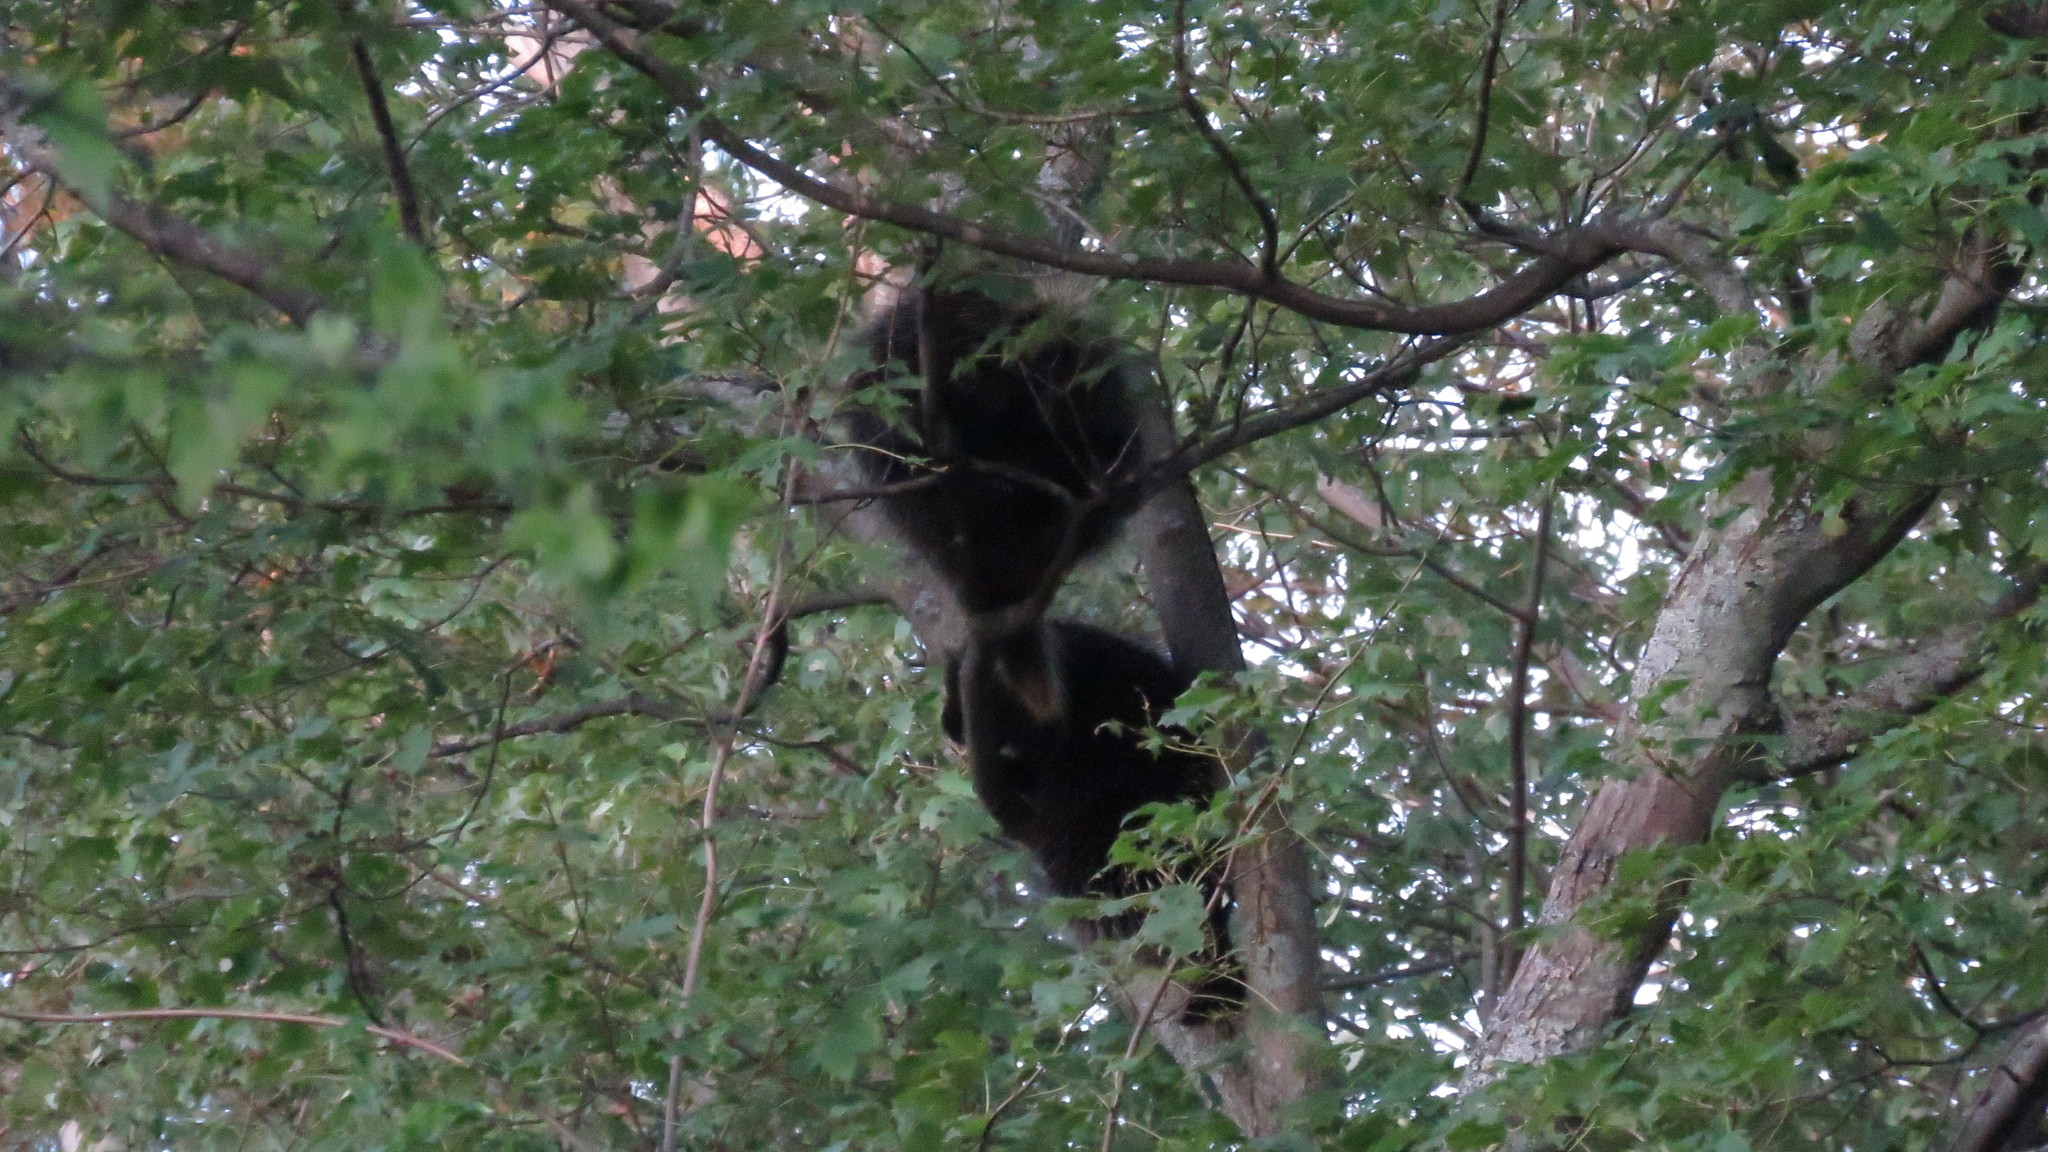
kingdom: Animalia
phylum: Chordata
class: Mammalia
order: Rodentia
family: Erethizontidae
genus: Erethizon
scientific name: Erethizon dorsatus
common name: North american porcupine
